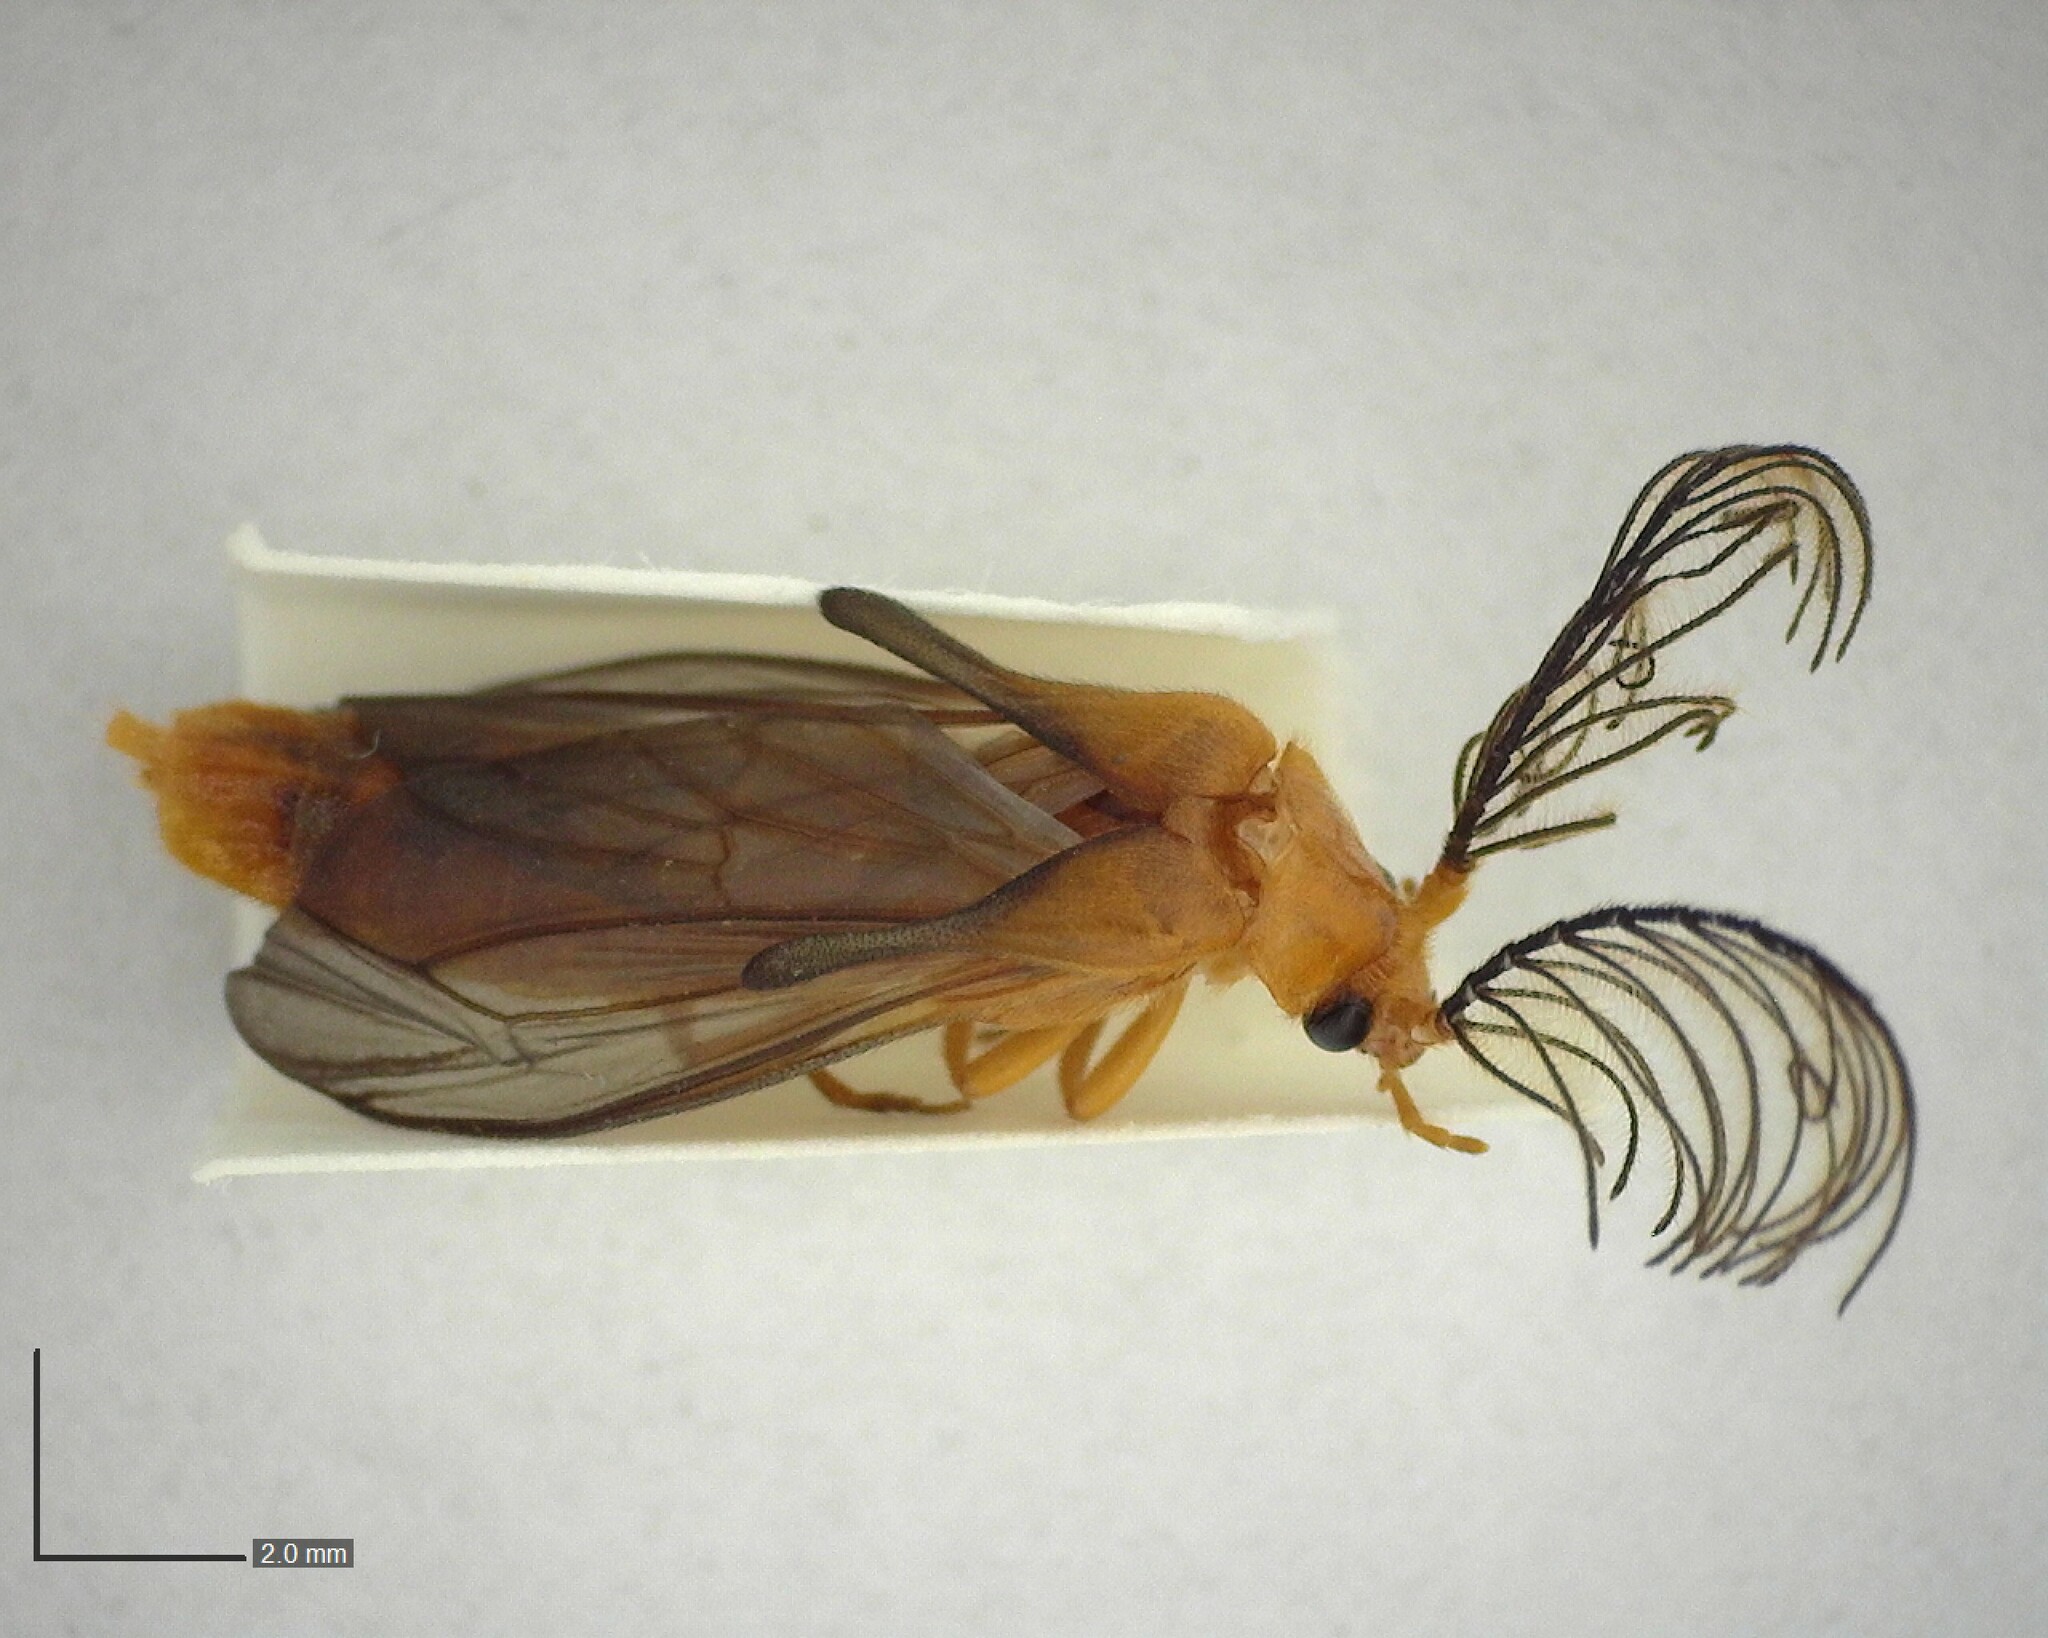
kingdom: Animalia
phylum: Arthropoda
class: Insecta
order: Coleoptera
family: Phengodidae
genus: Phengodes
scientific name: Phengodes fusciceps
